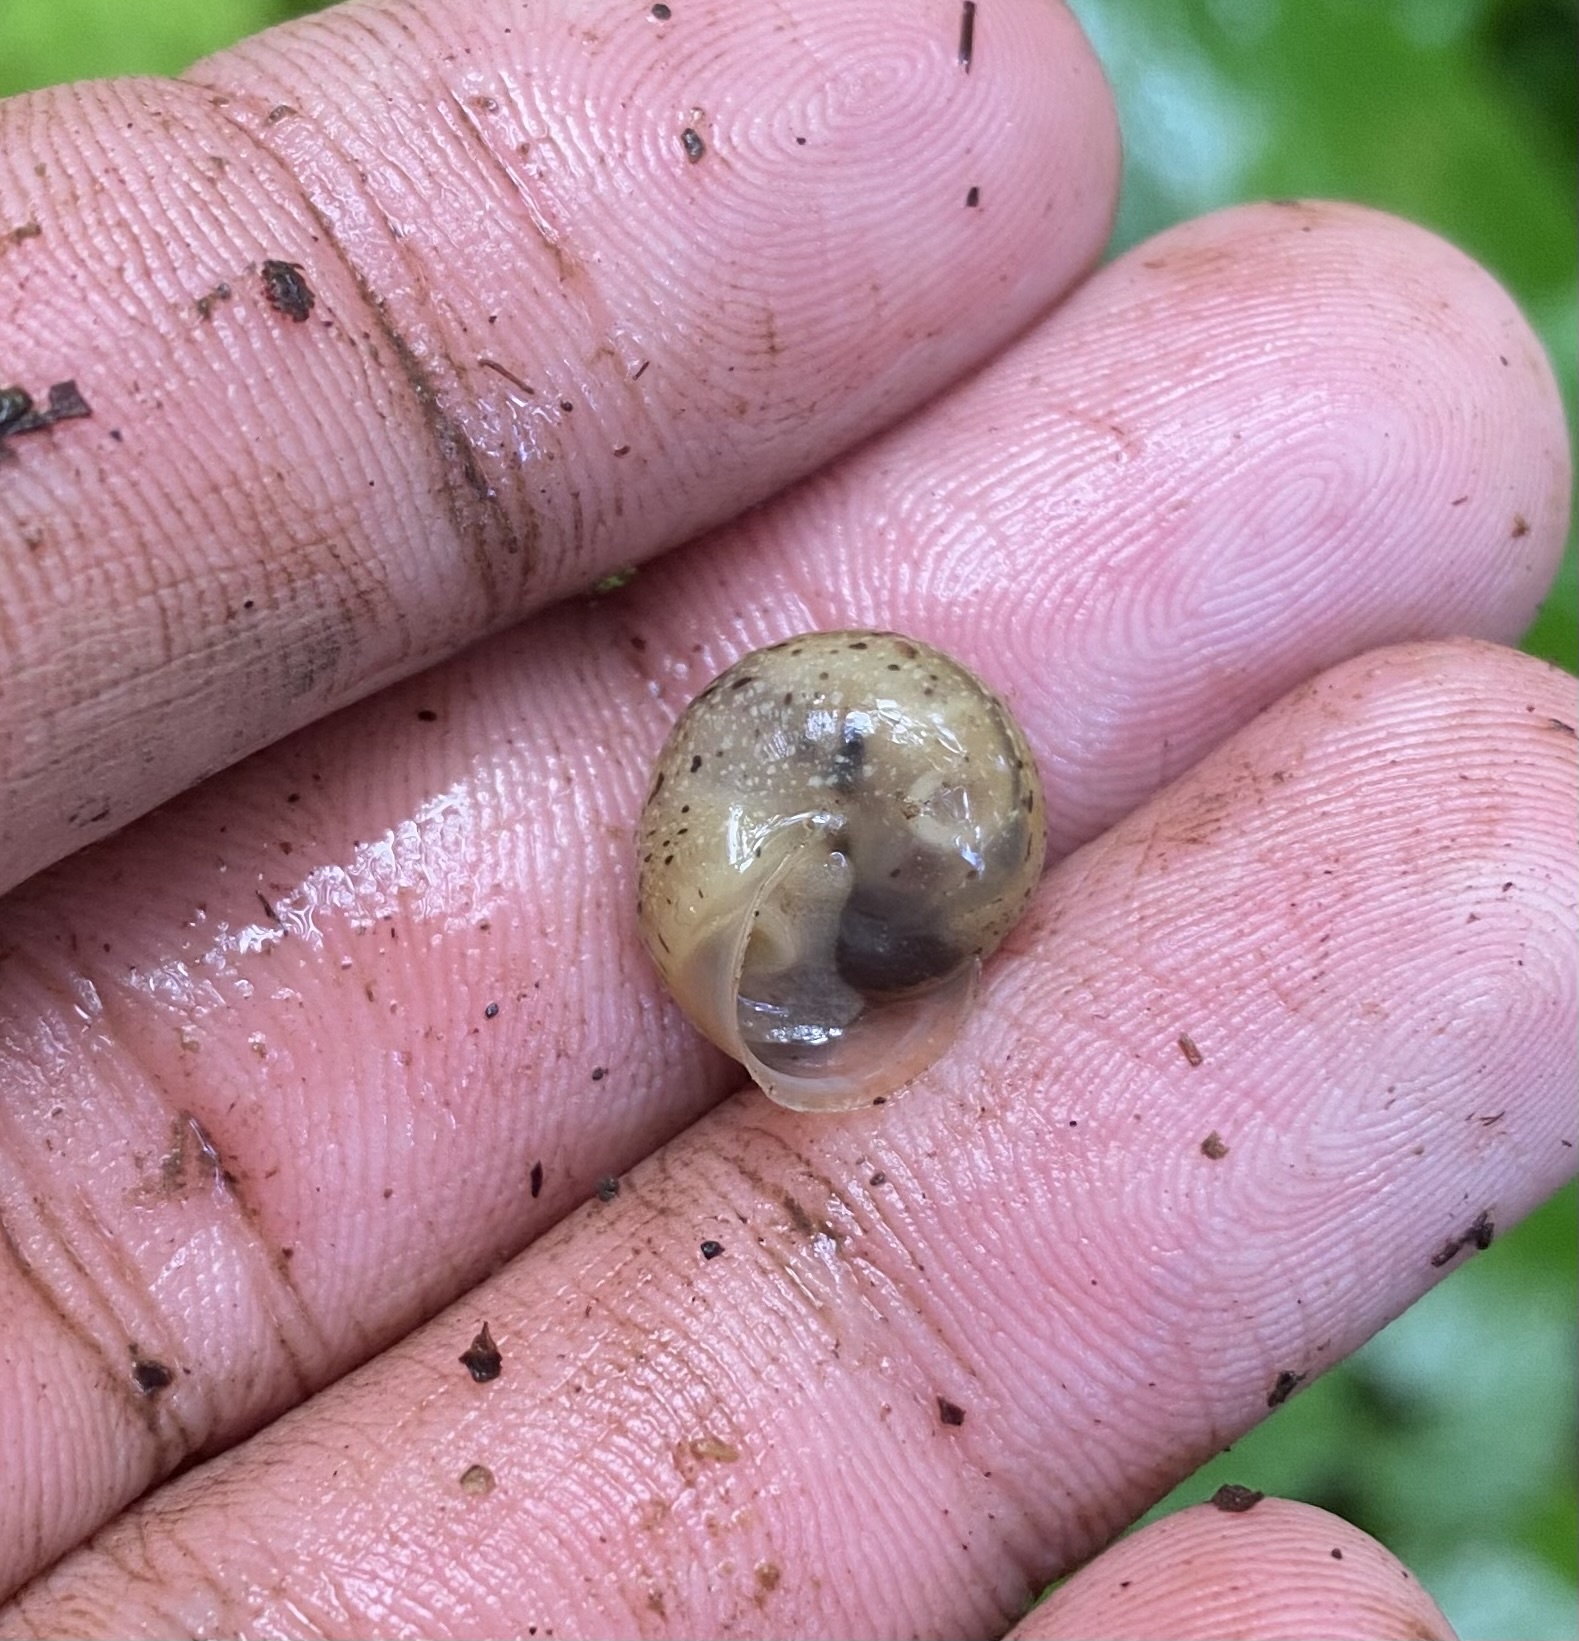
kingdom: Animalia
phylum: Mollusca
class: Gastropoda
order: Stylommatophora
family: Hygromiidae
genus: Abchasohela
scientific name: Abchasohela septentrionalis
